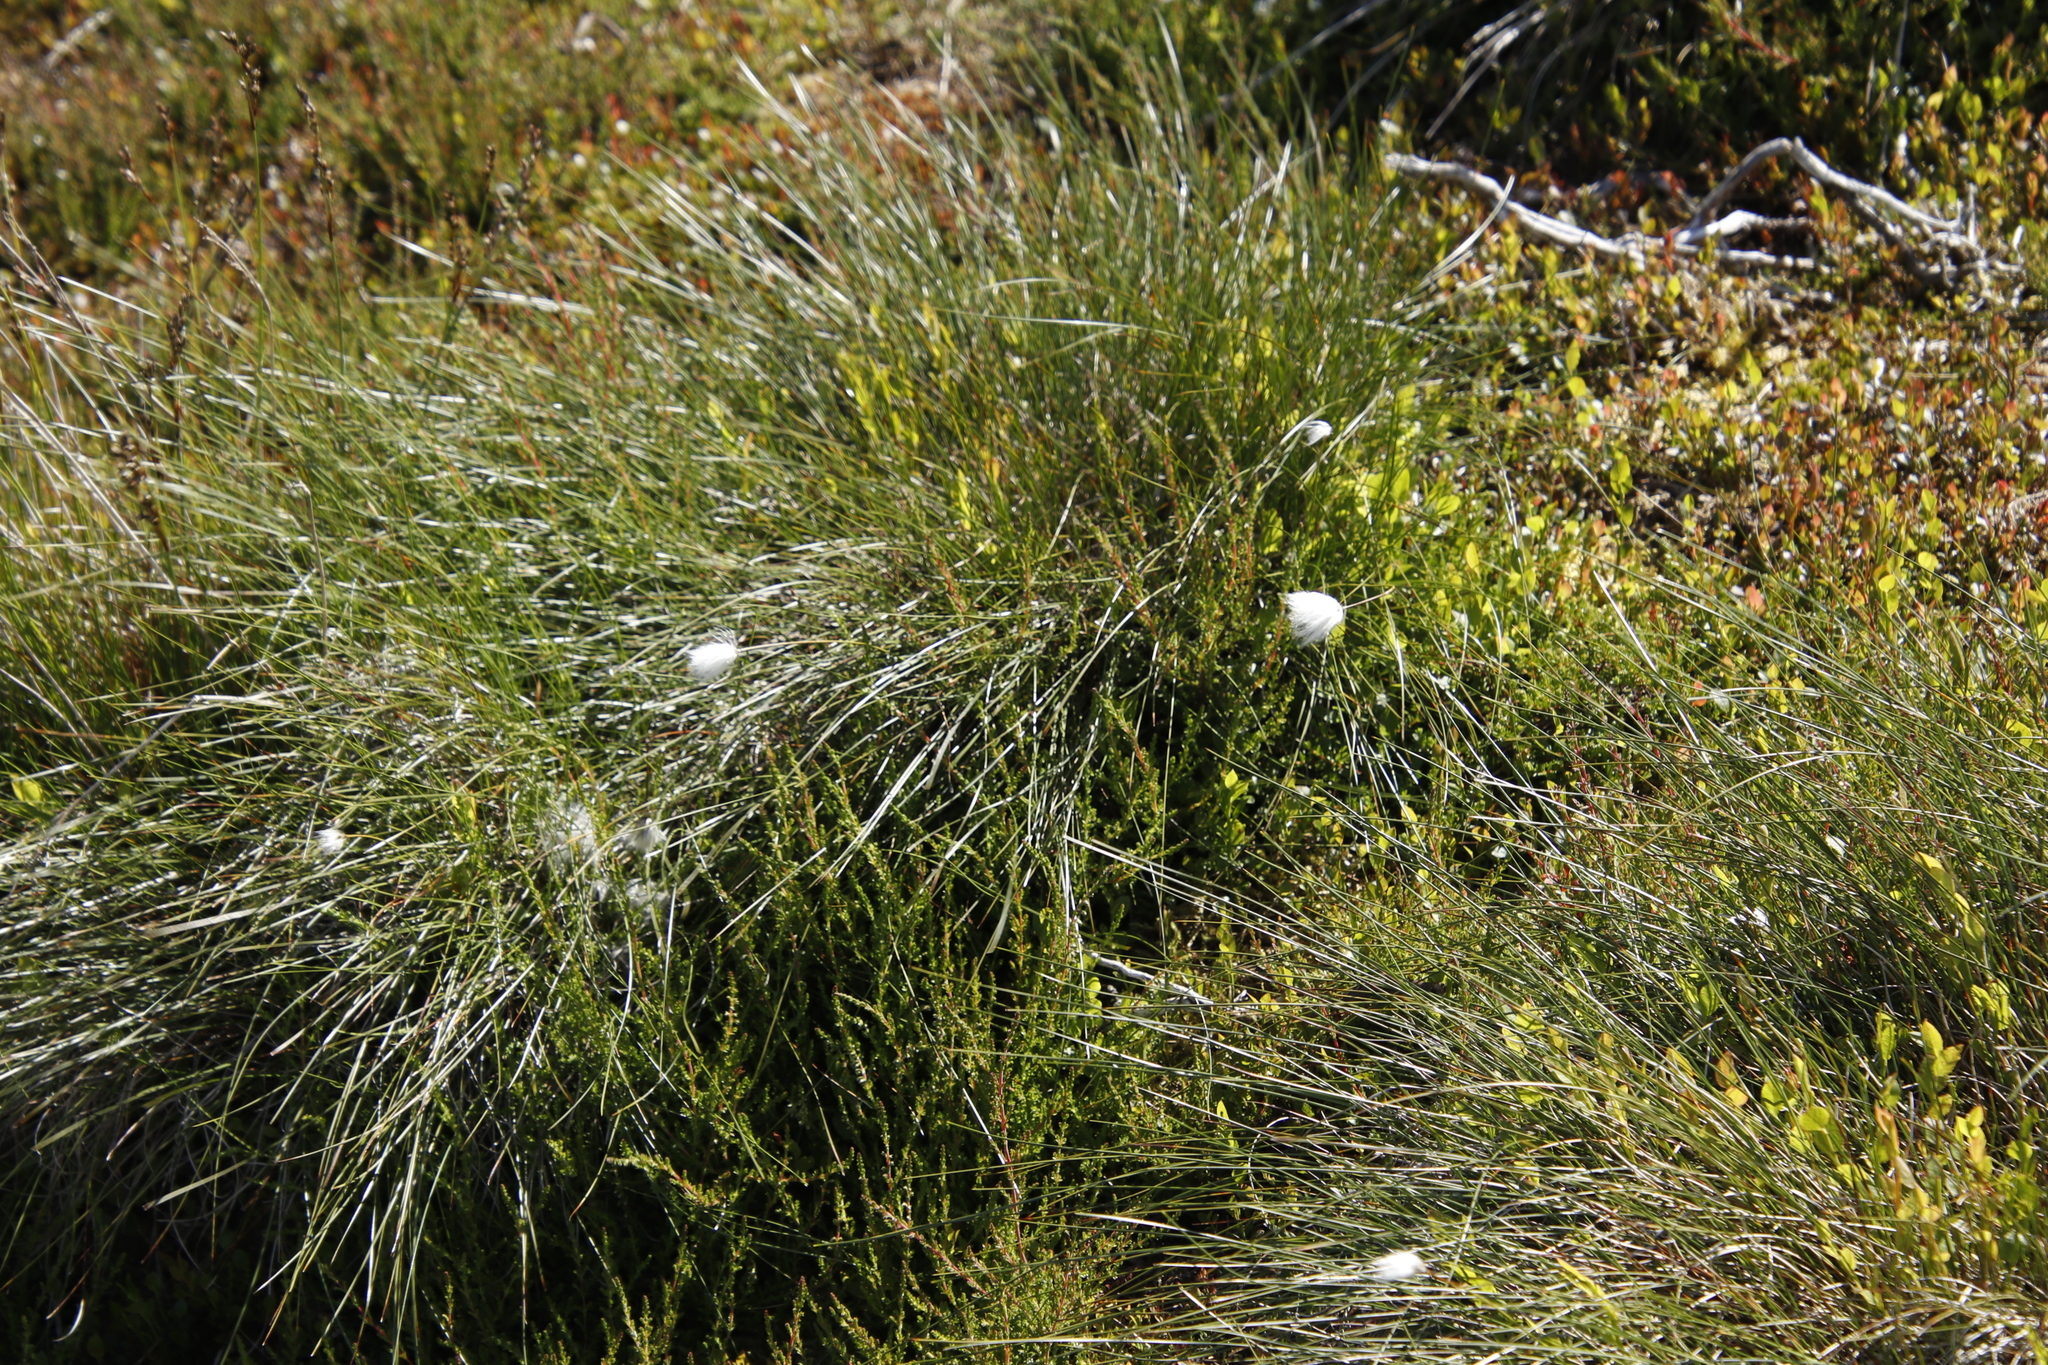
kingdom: Plantae
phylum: Tracheophyta
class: Liliopsida
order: Poales
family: Cyperaceae
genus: Eriophorum
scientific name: Eriophorum vaginatum
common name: Hare's-tail cottongrass
